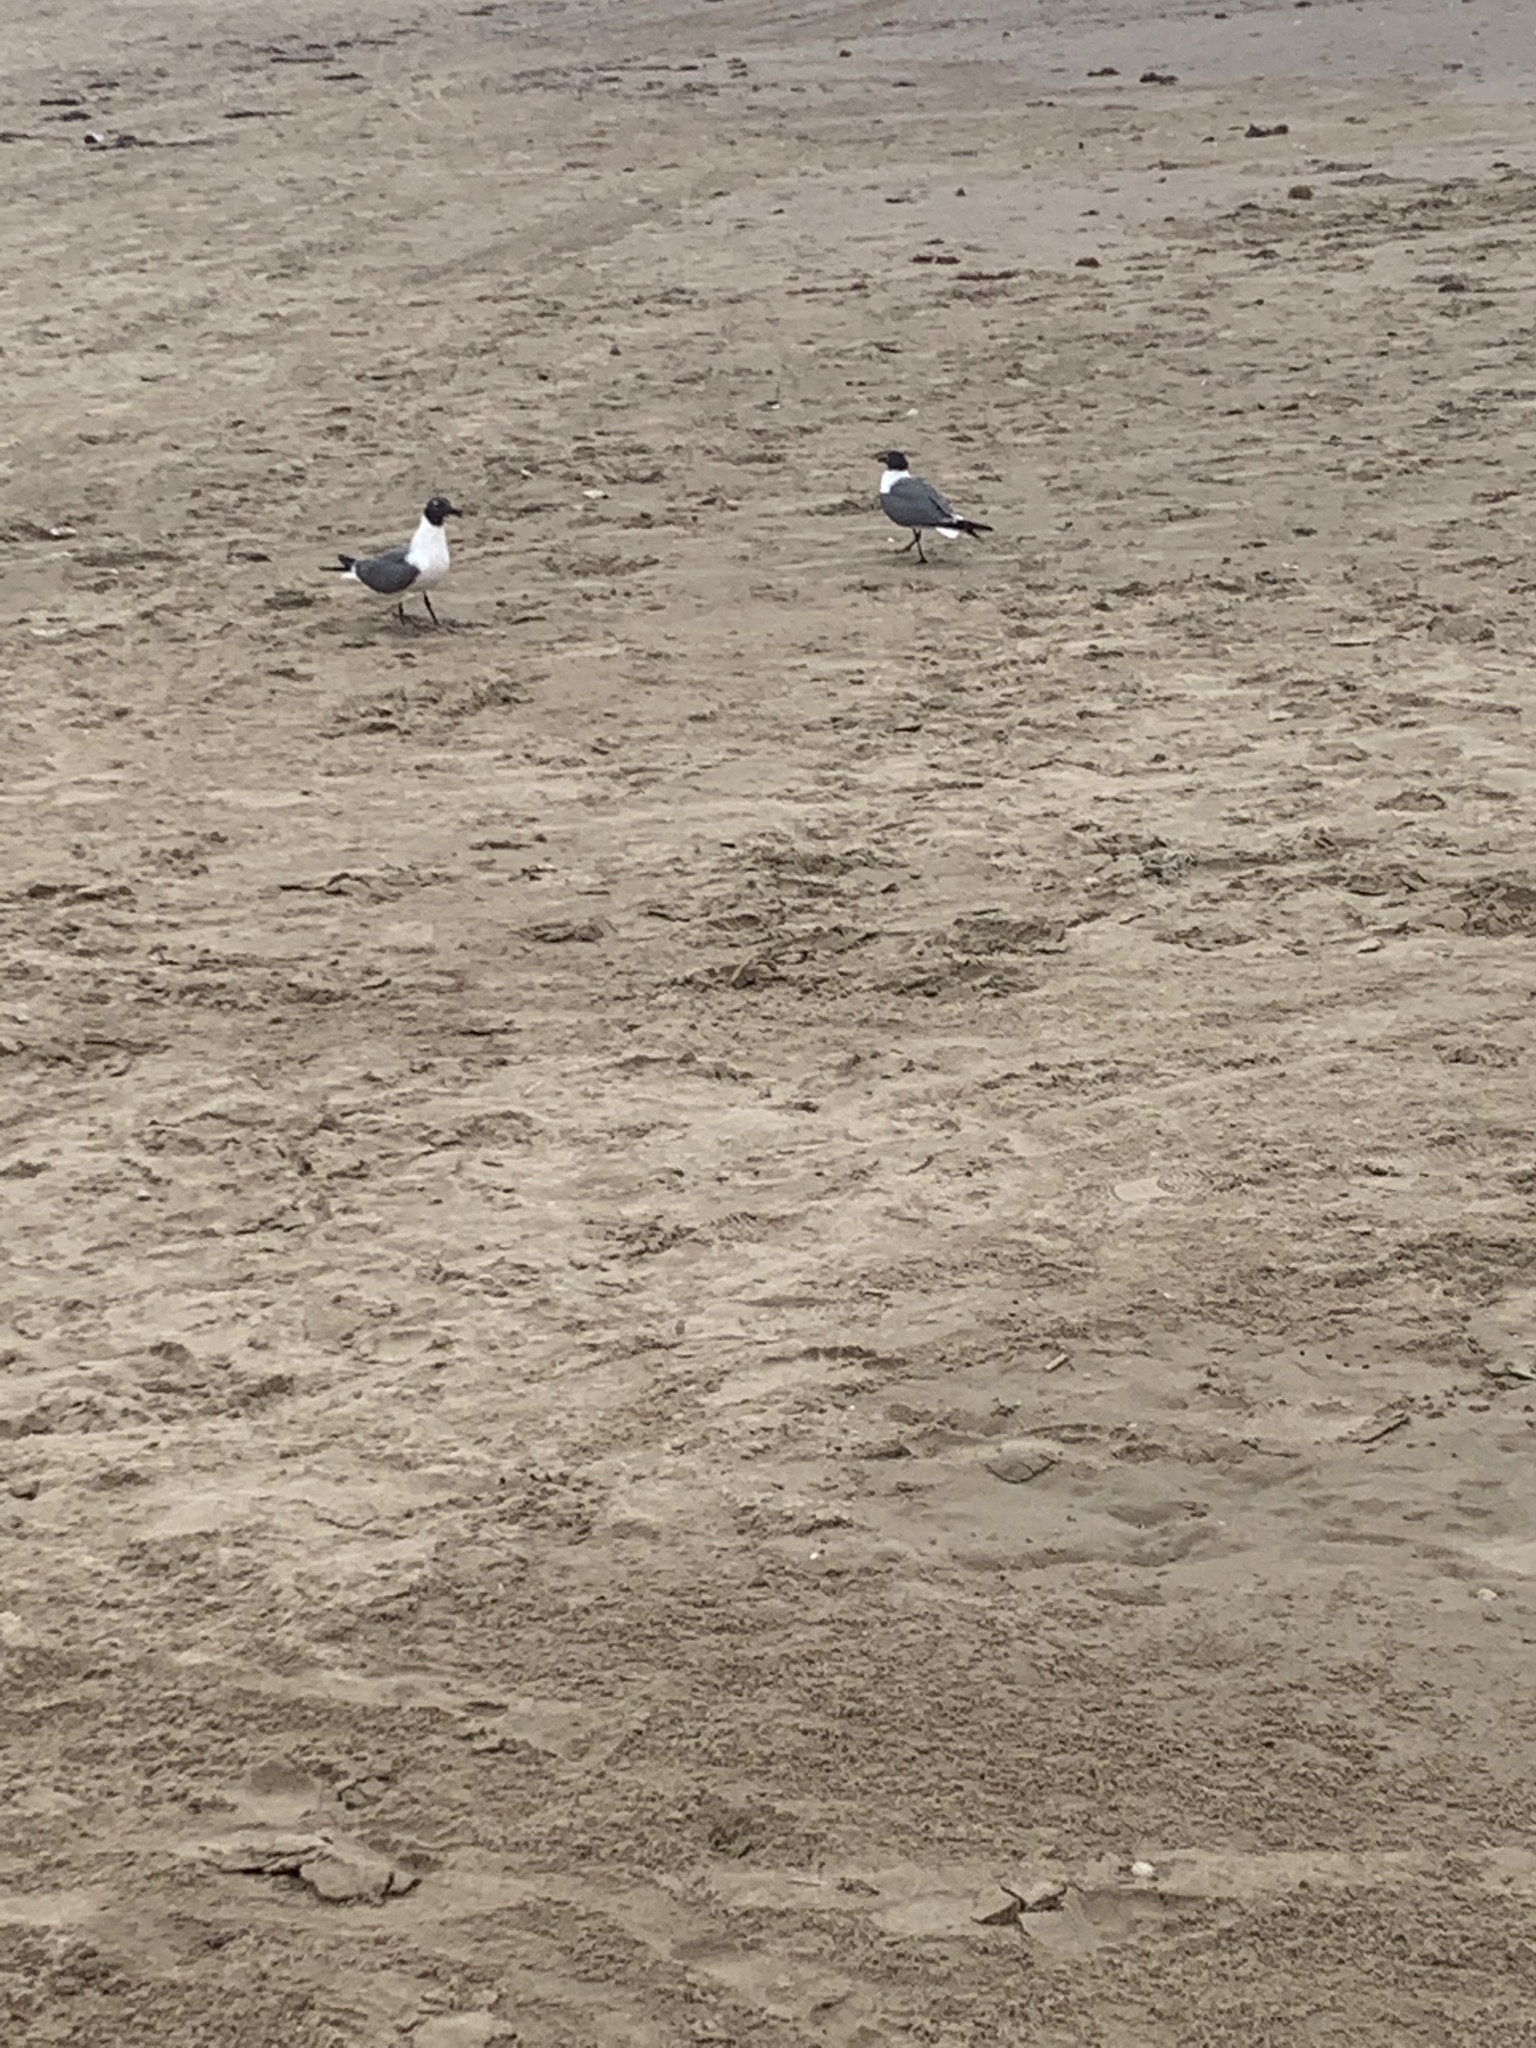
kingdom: Animalia
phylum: Chordata
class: Aves
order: Charadriiformes
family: Laridae
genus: Leucophaeus
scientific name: Leucophaeus atricilla
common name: Laughing gull
